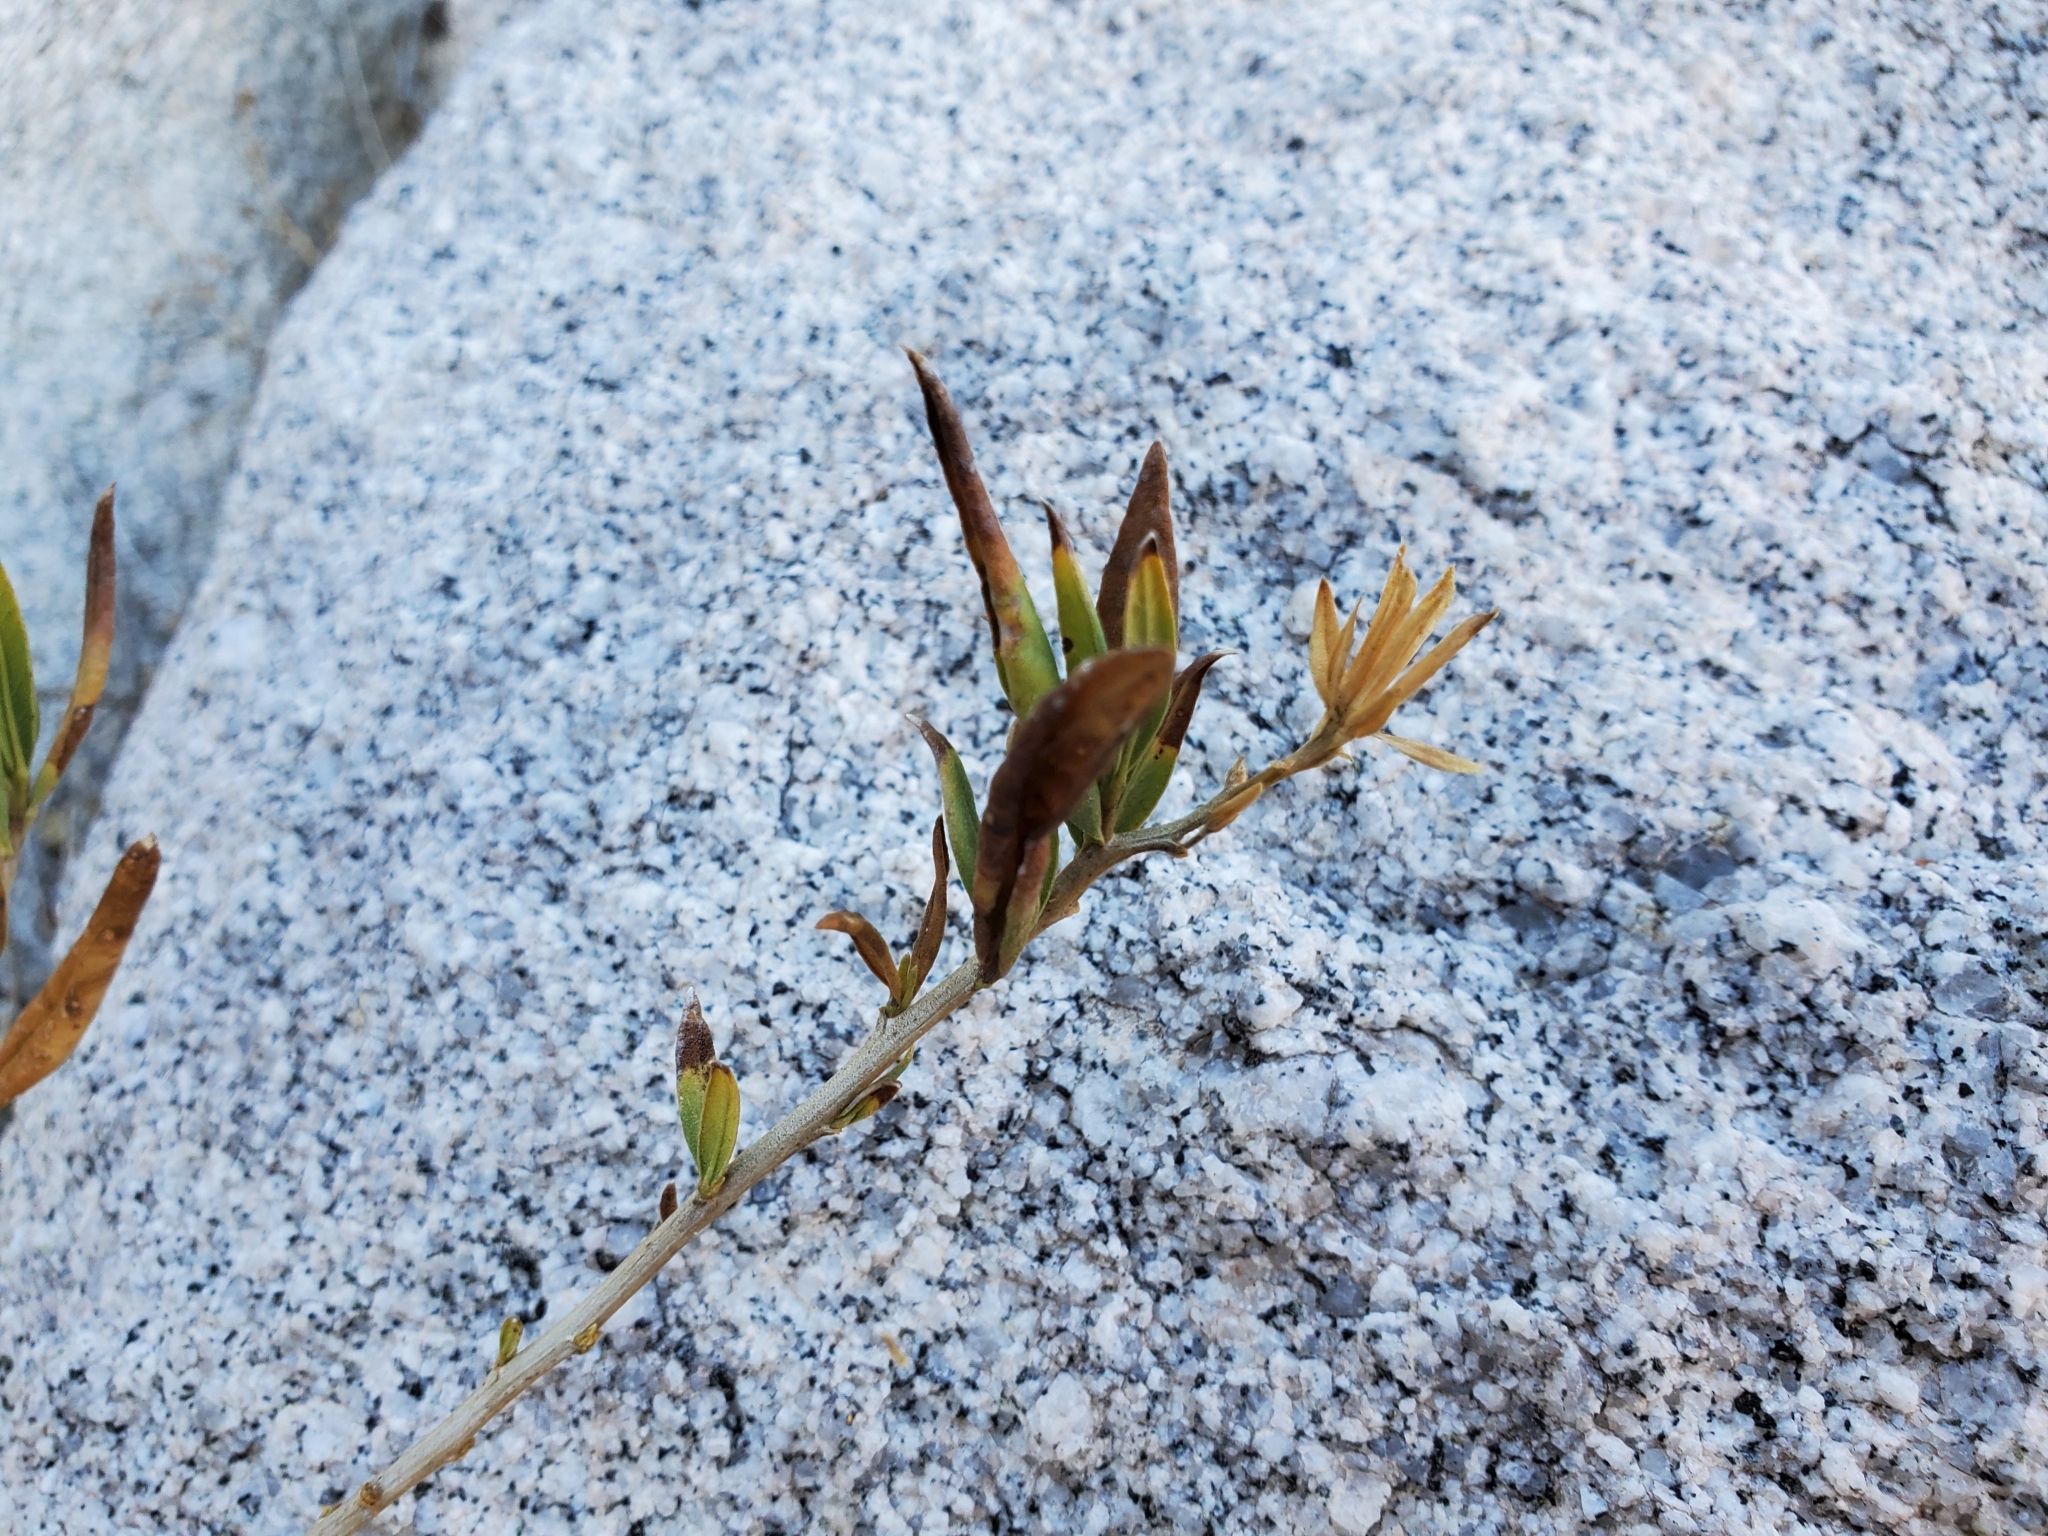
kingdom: Plantae
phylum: Tracheophyta
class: Magnoliopsida
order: Asterales
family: Asteraceae
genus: Trixis
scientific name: Trixis californica
